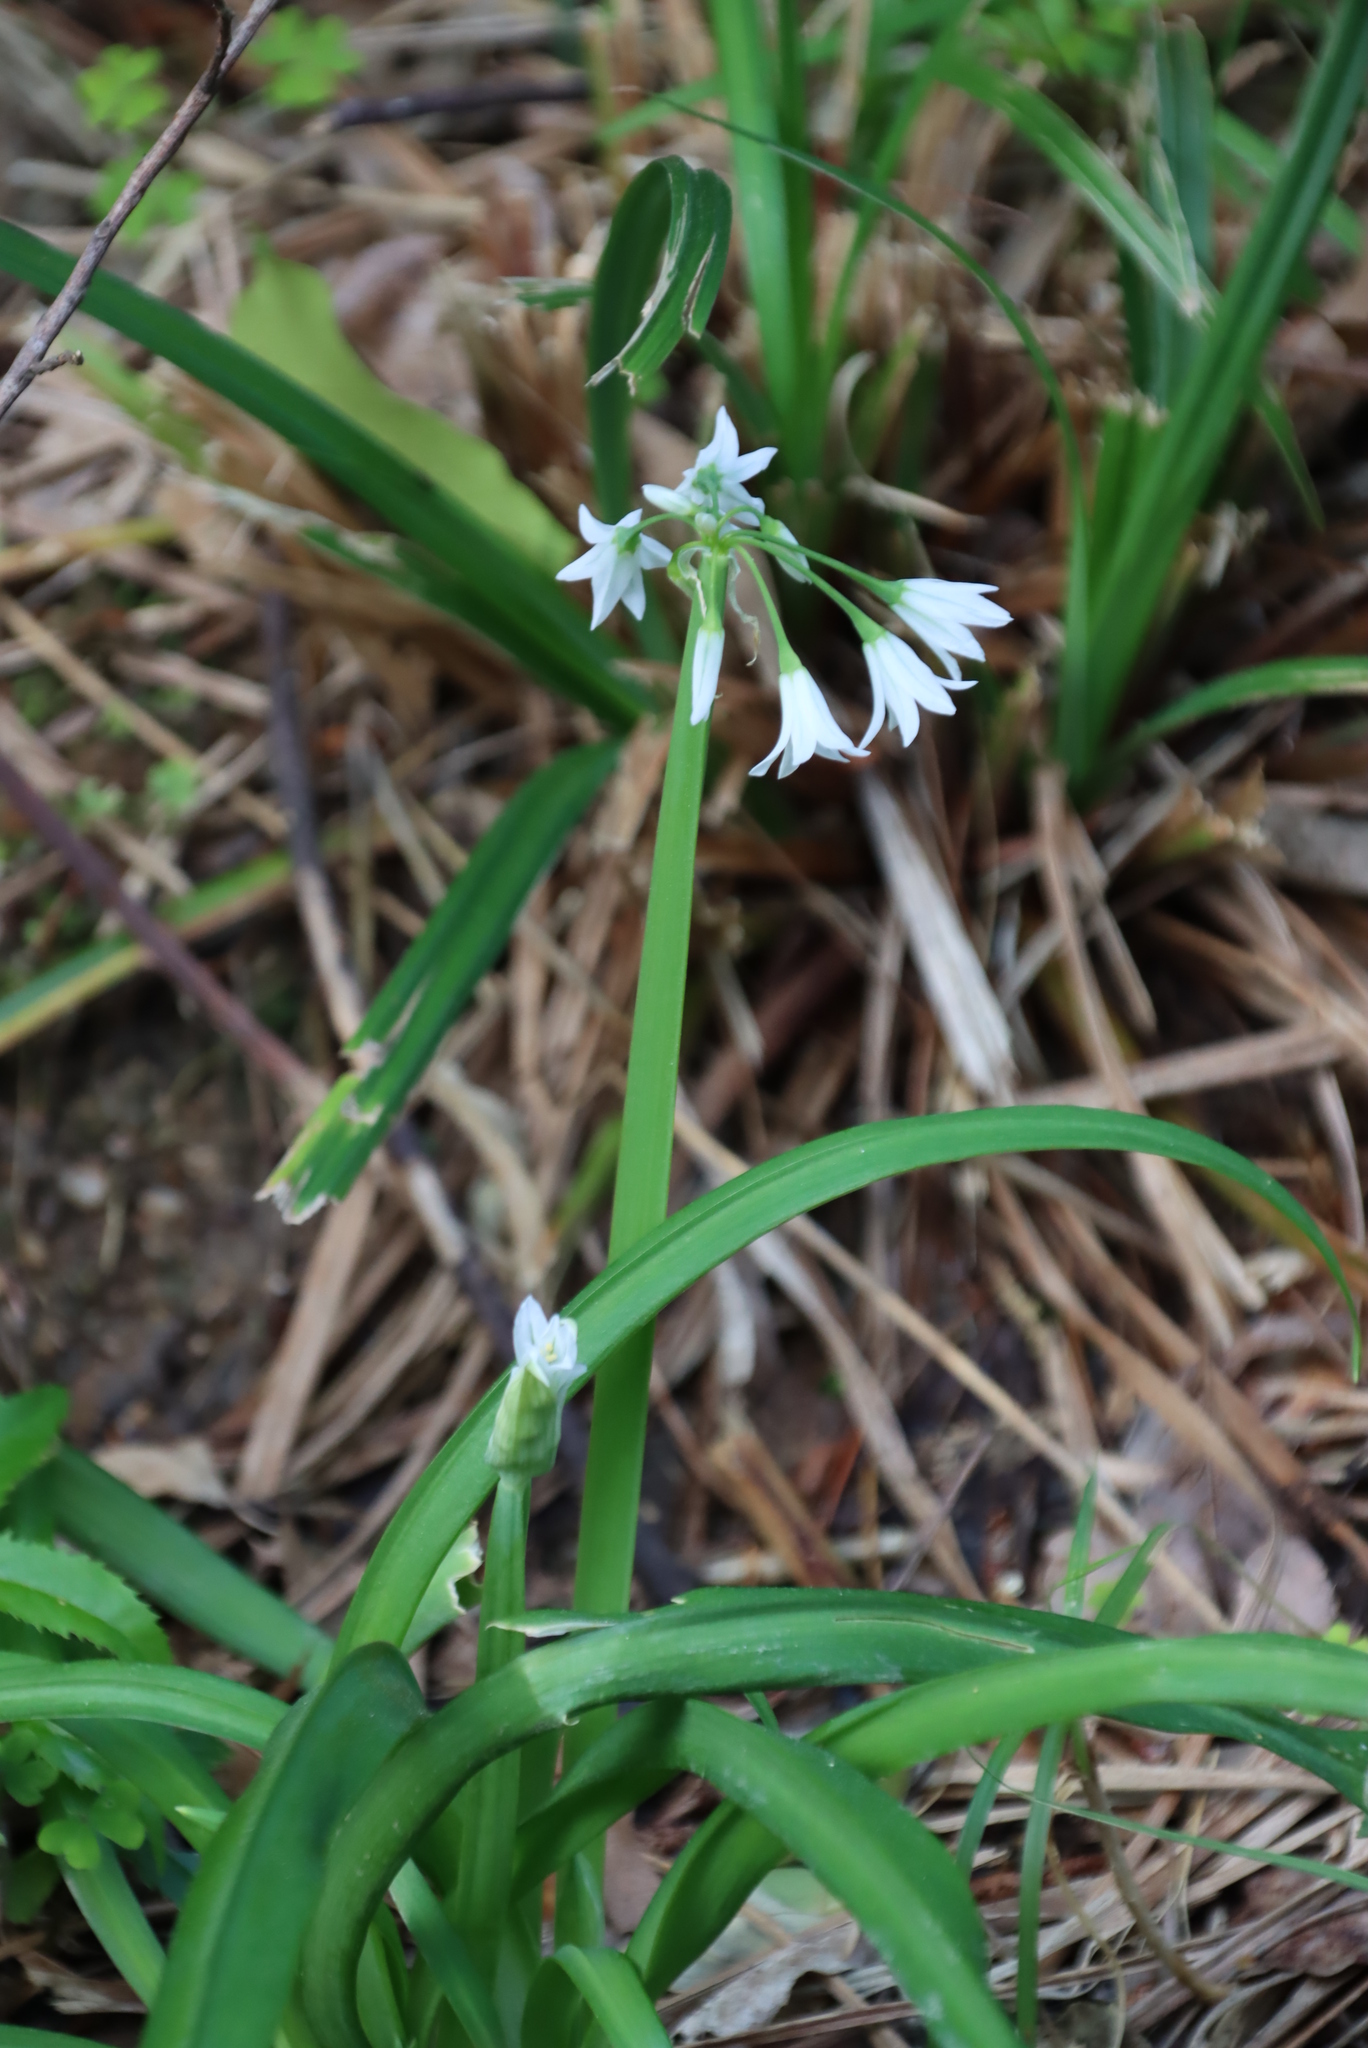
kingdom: Plantae
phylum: Tracheophyta
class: Liliopsida
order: Asparagales
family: Amaryllidaceae
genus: Allium
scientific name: Allium triquetrum
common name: Three-cornered garlic
